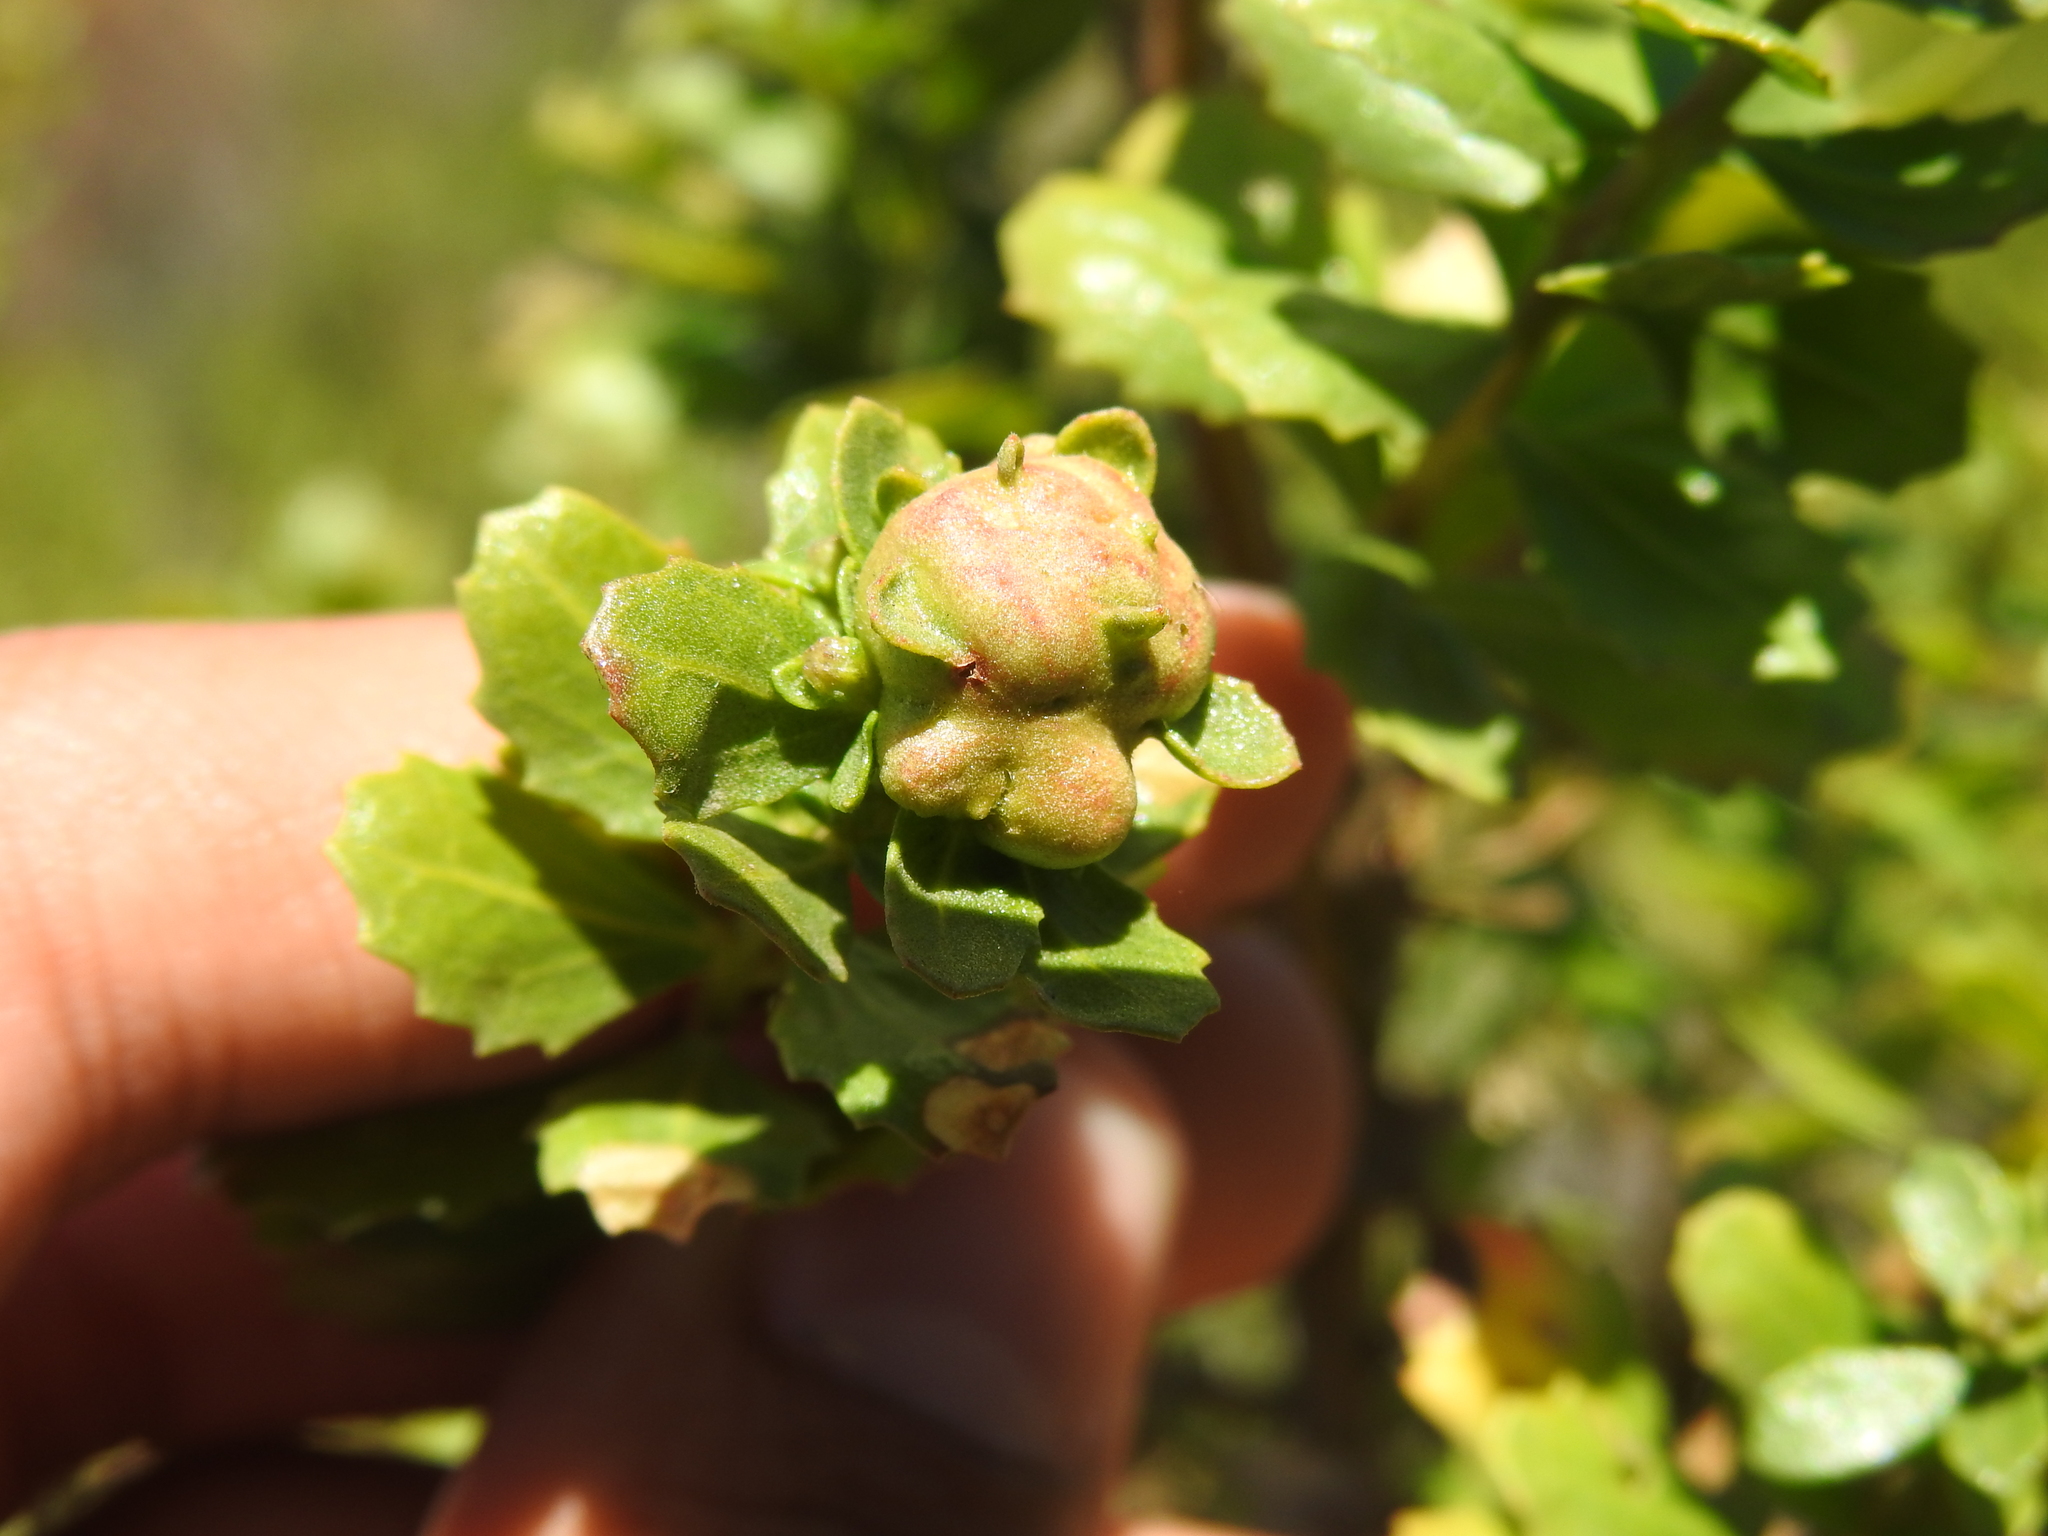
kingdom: Animalia
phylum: Arthropoda
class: Insecta
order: Diptera
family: Cecidomyiidae
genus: Rhopalomyia
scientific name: Rhopalomyia californica
